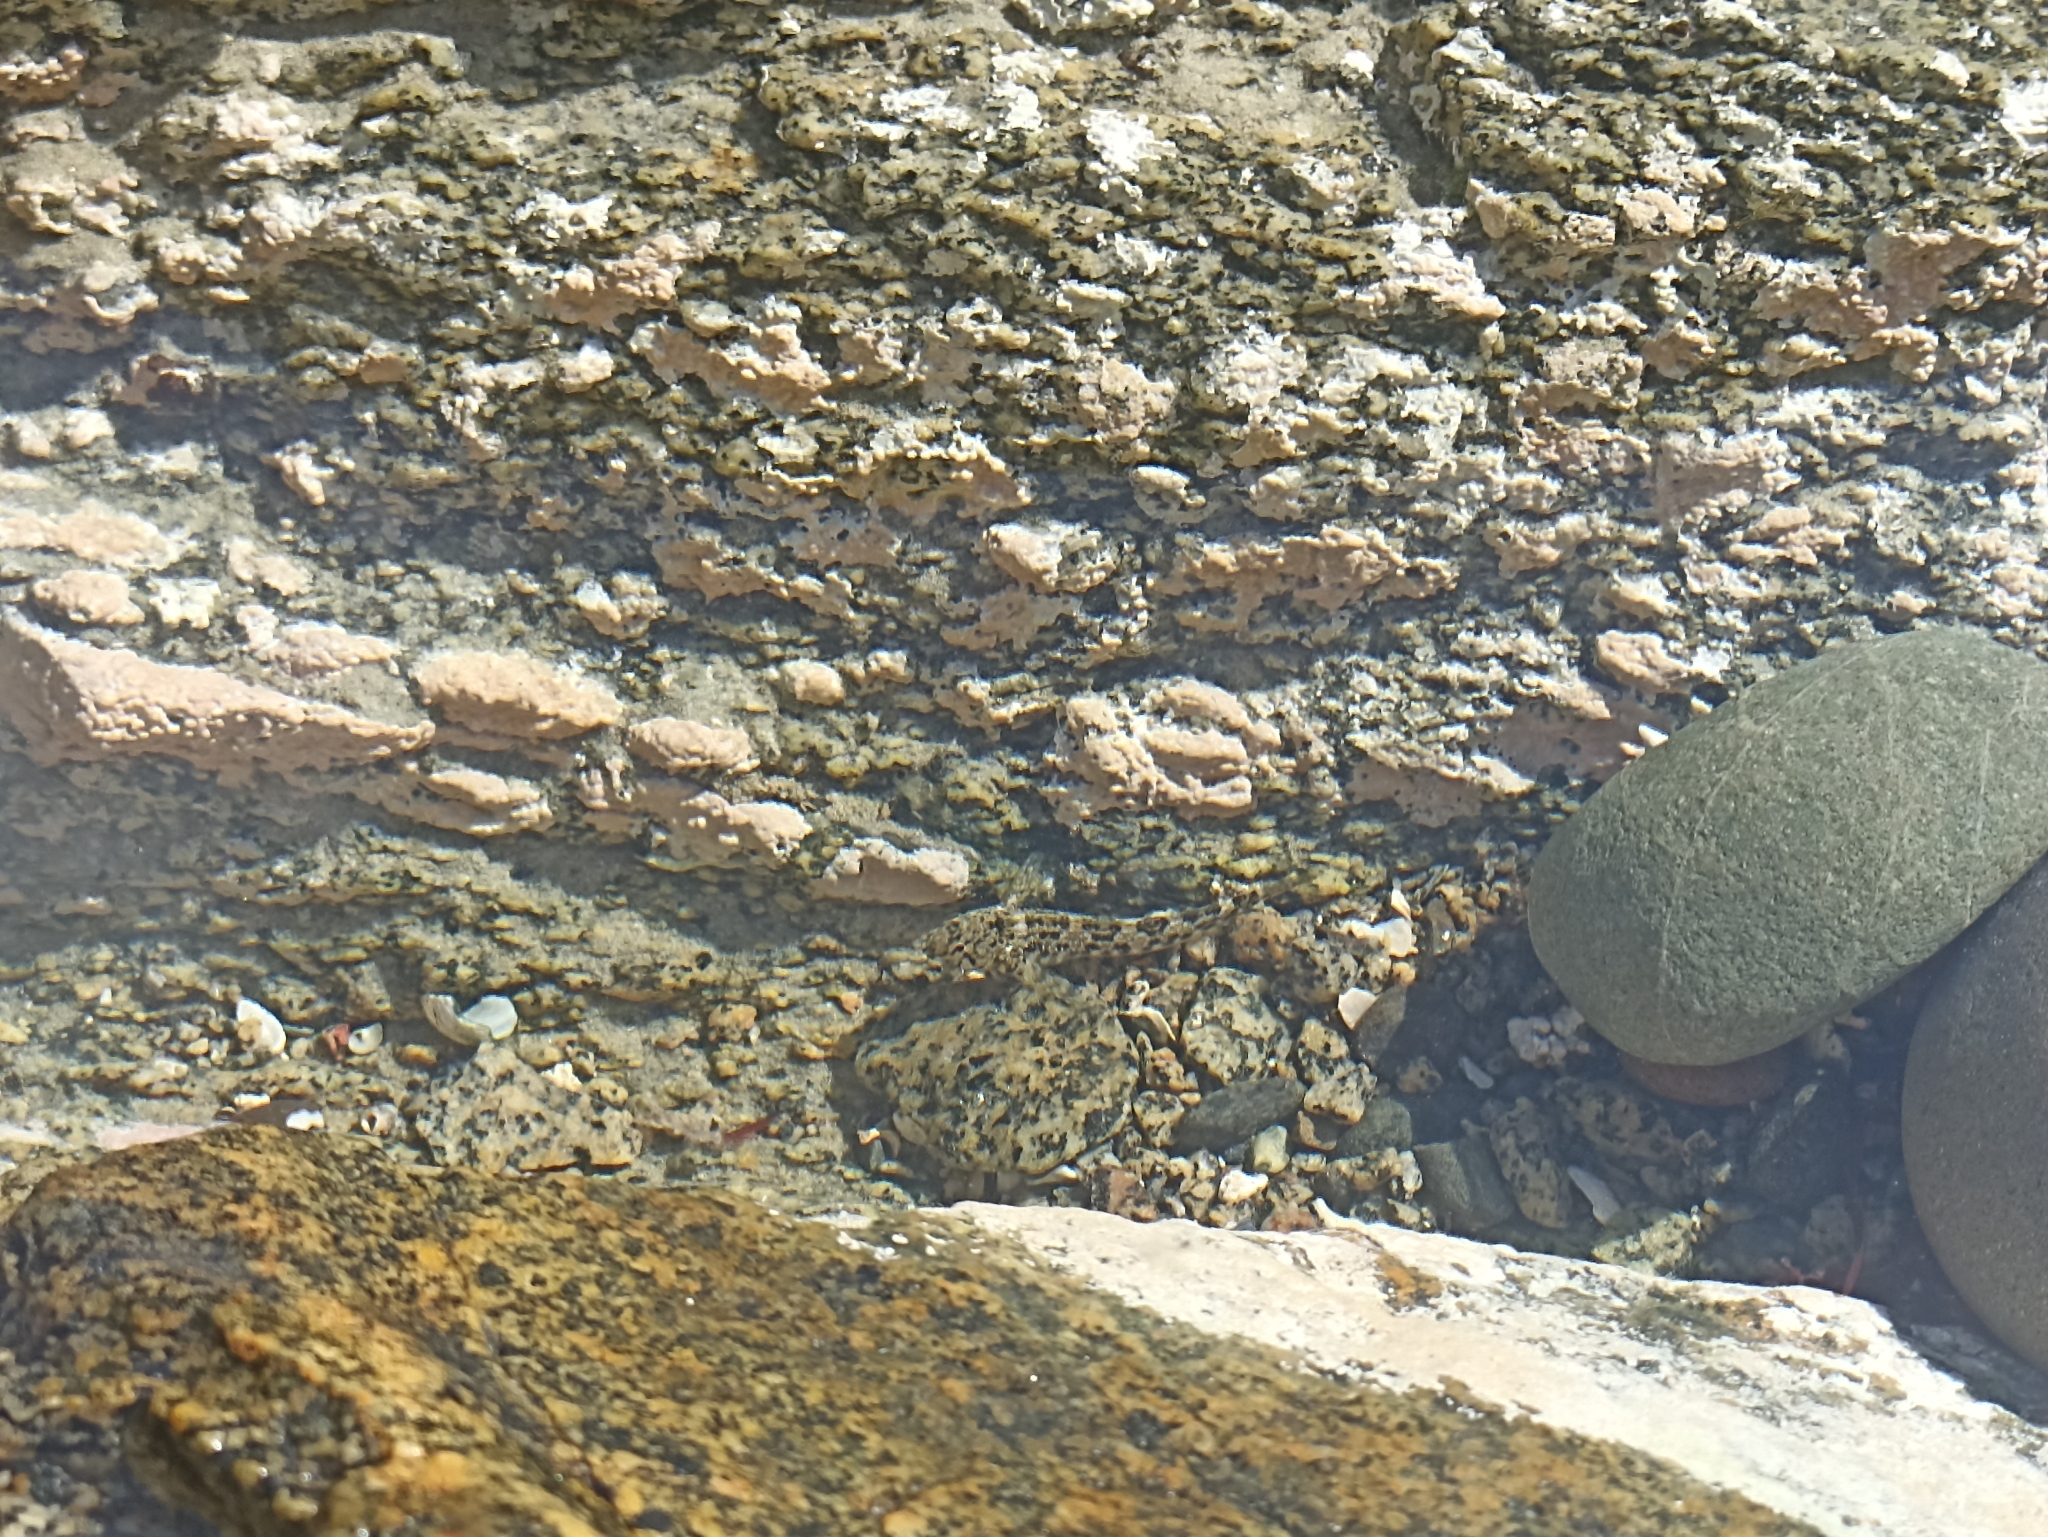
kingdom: Animalia
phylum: Chordata
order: Perciformes
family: Tripterygiidae
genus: Bellapiscis
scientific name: Bellapiscis medius
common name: Twister
